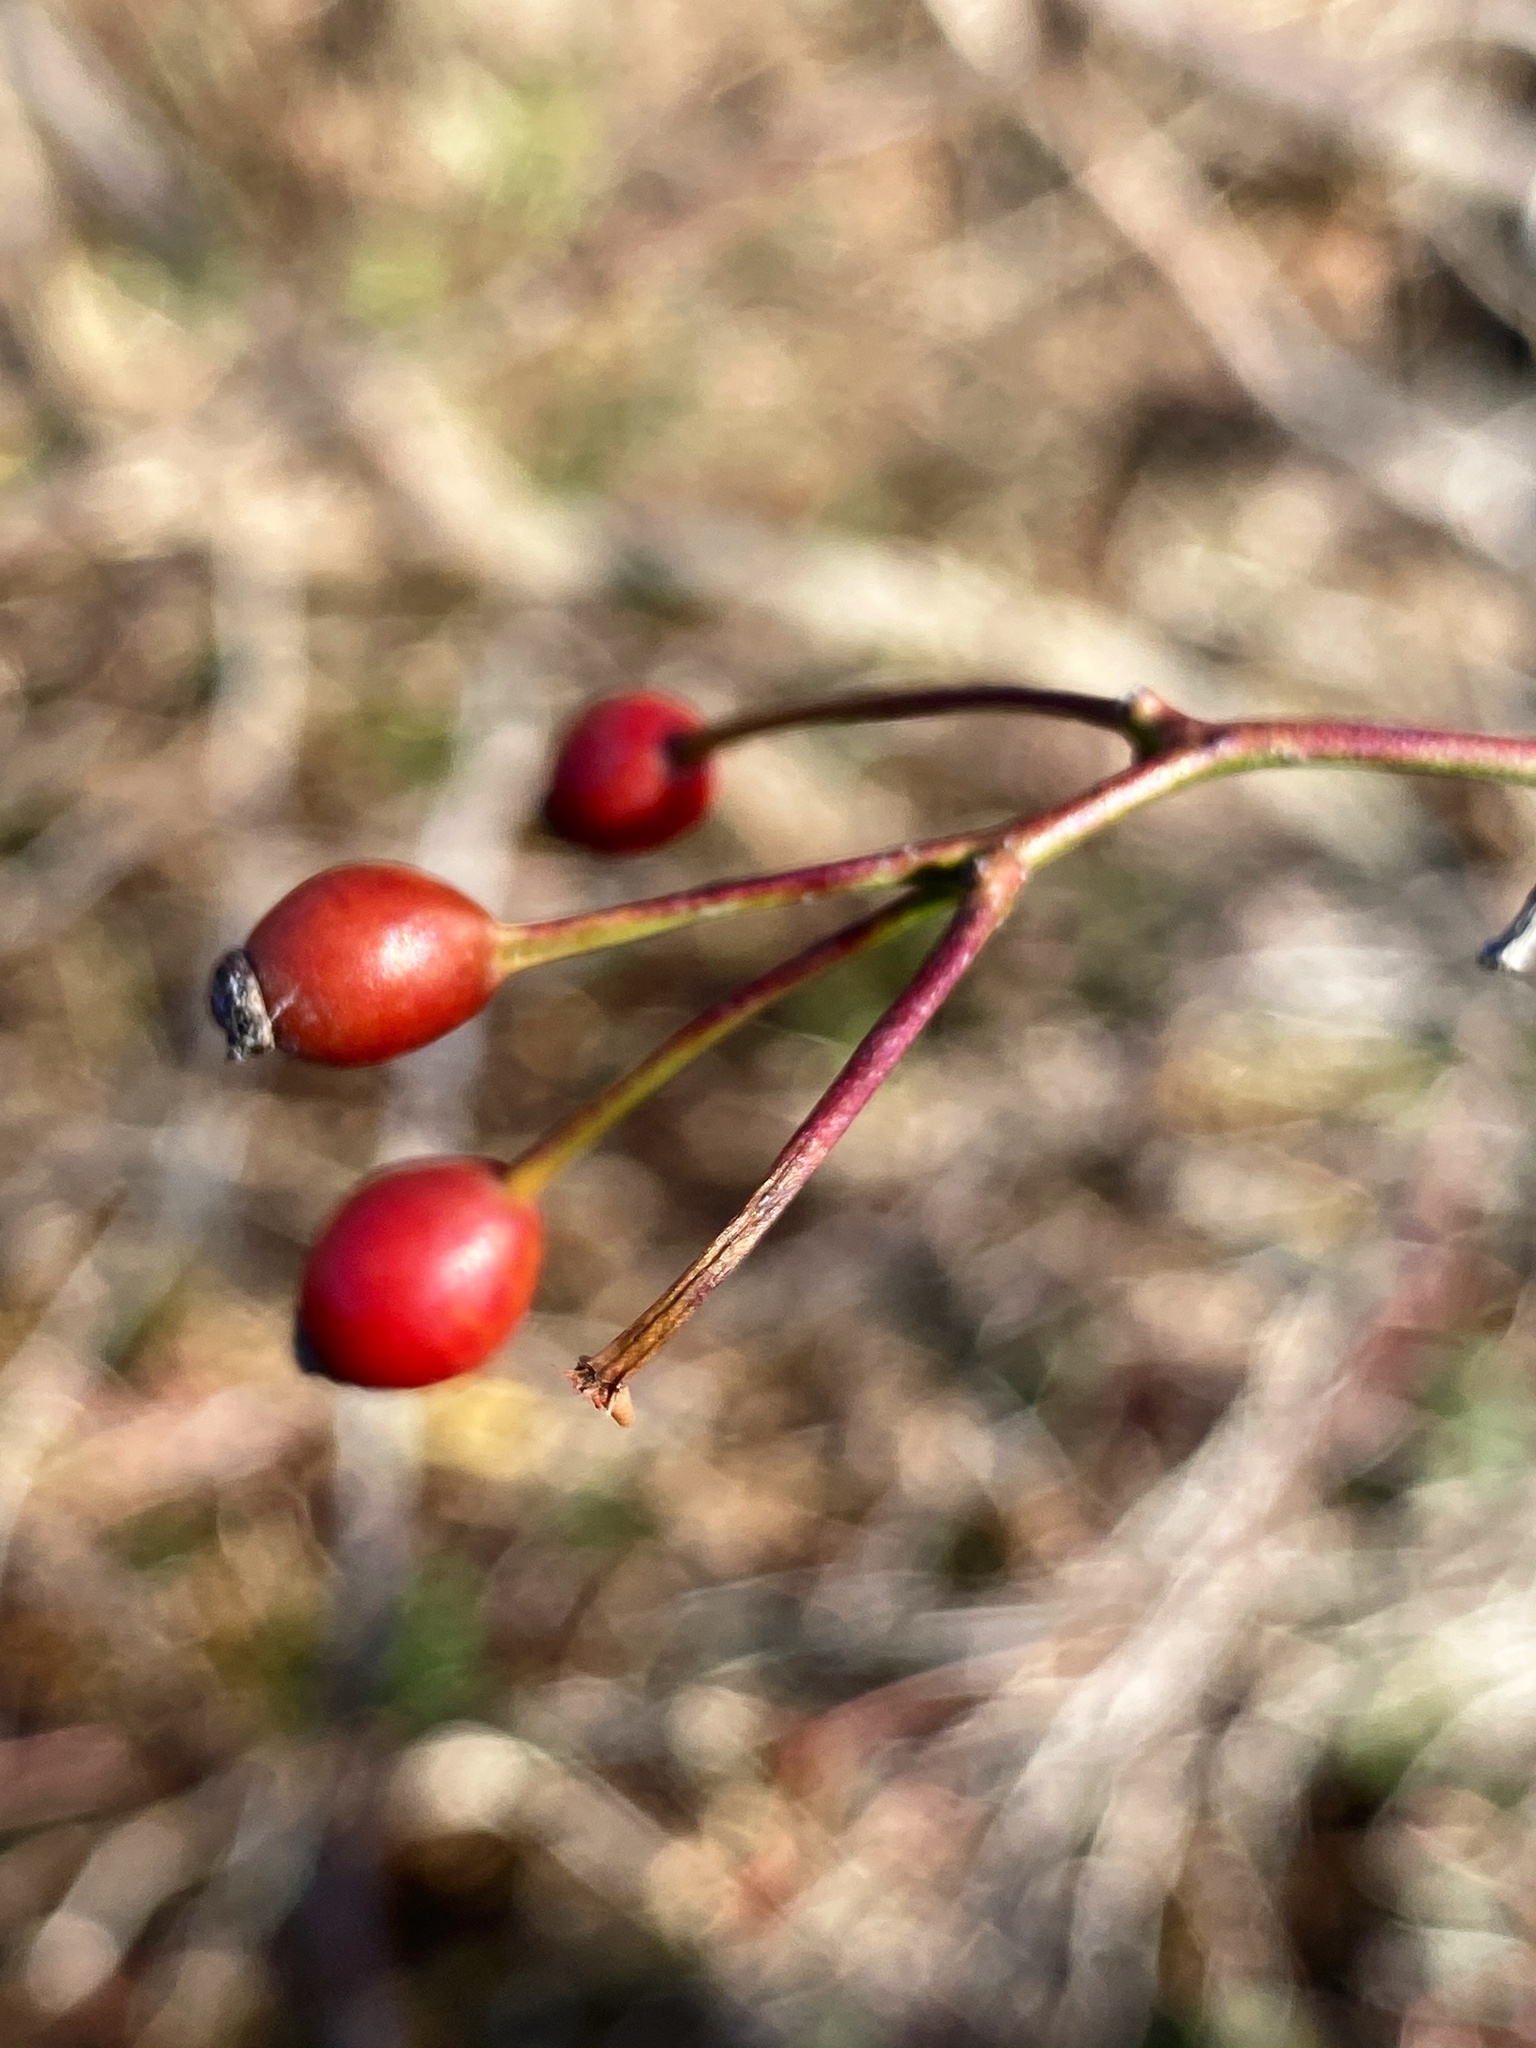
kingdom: Plantae
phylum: Tracheophyta
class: Magnoliopsida
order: Rosales
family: Rosaceae
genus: Rosa
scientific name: Rosa multiflora
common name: Multiflora rose
